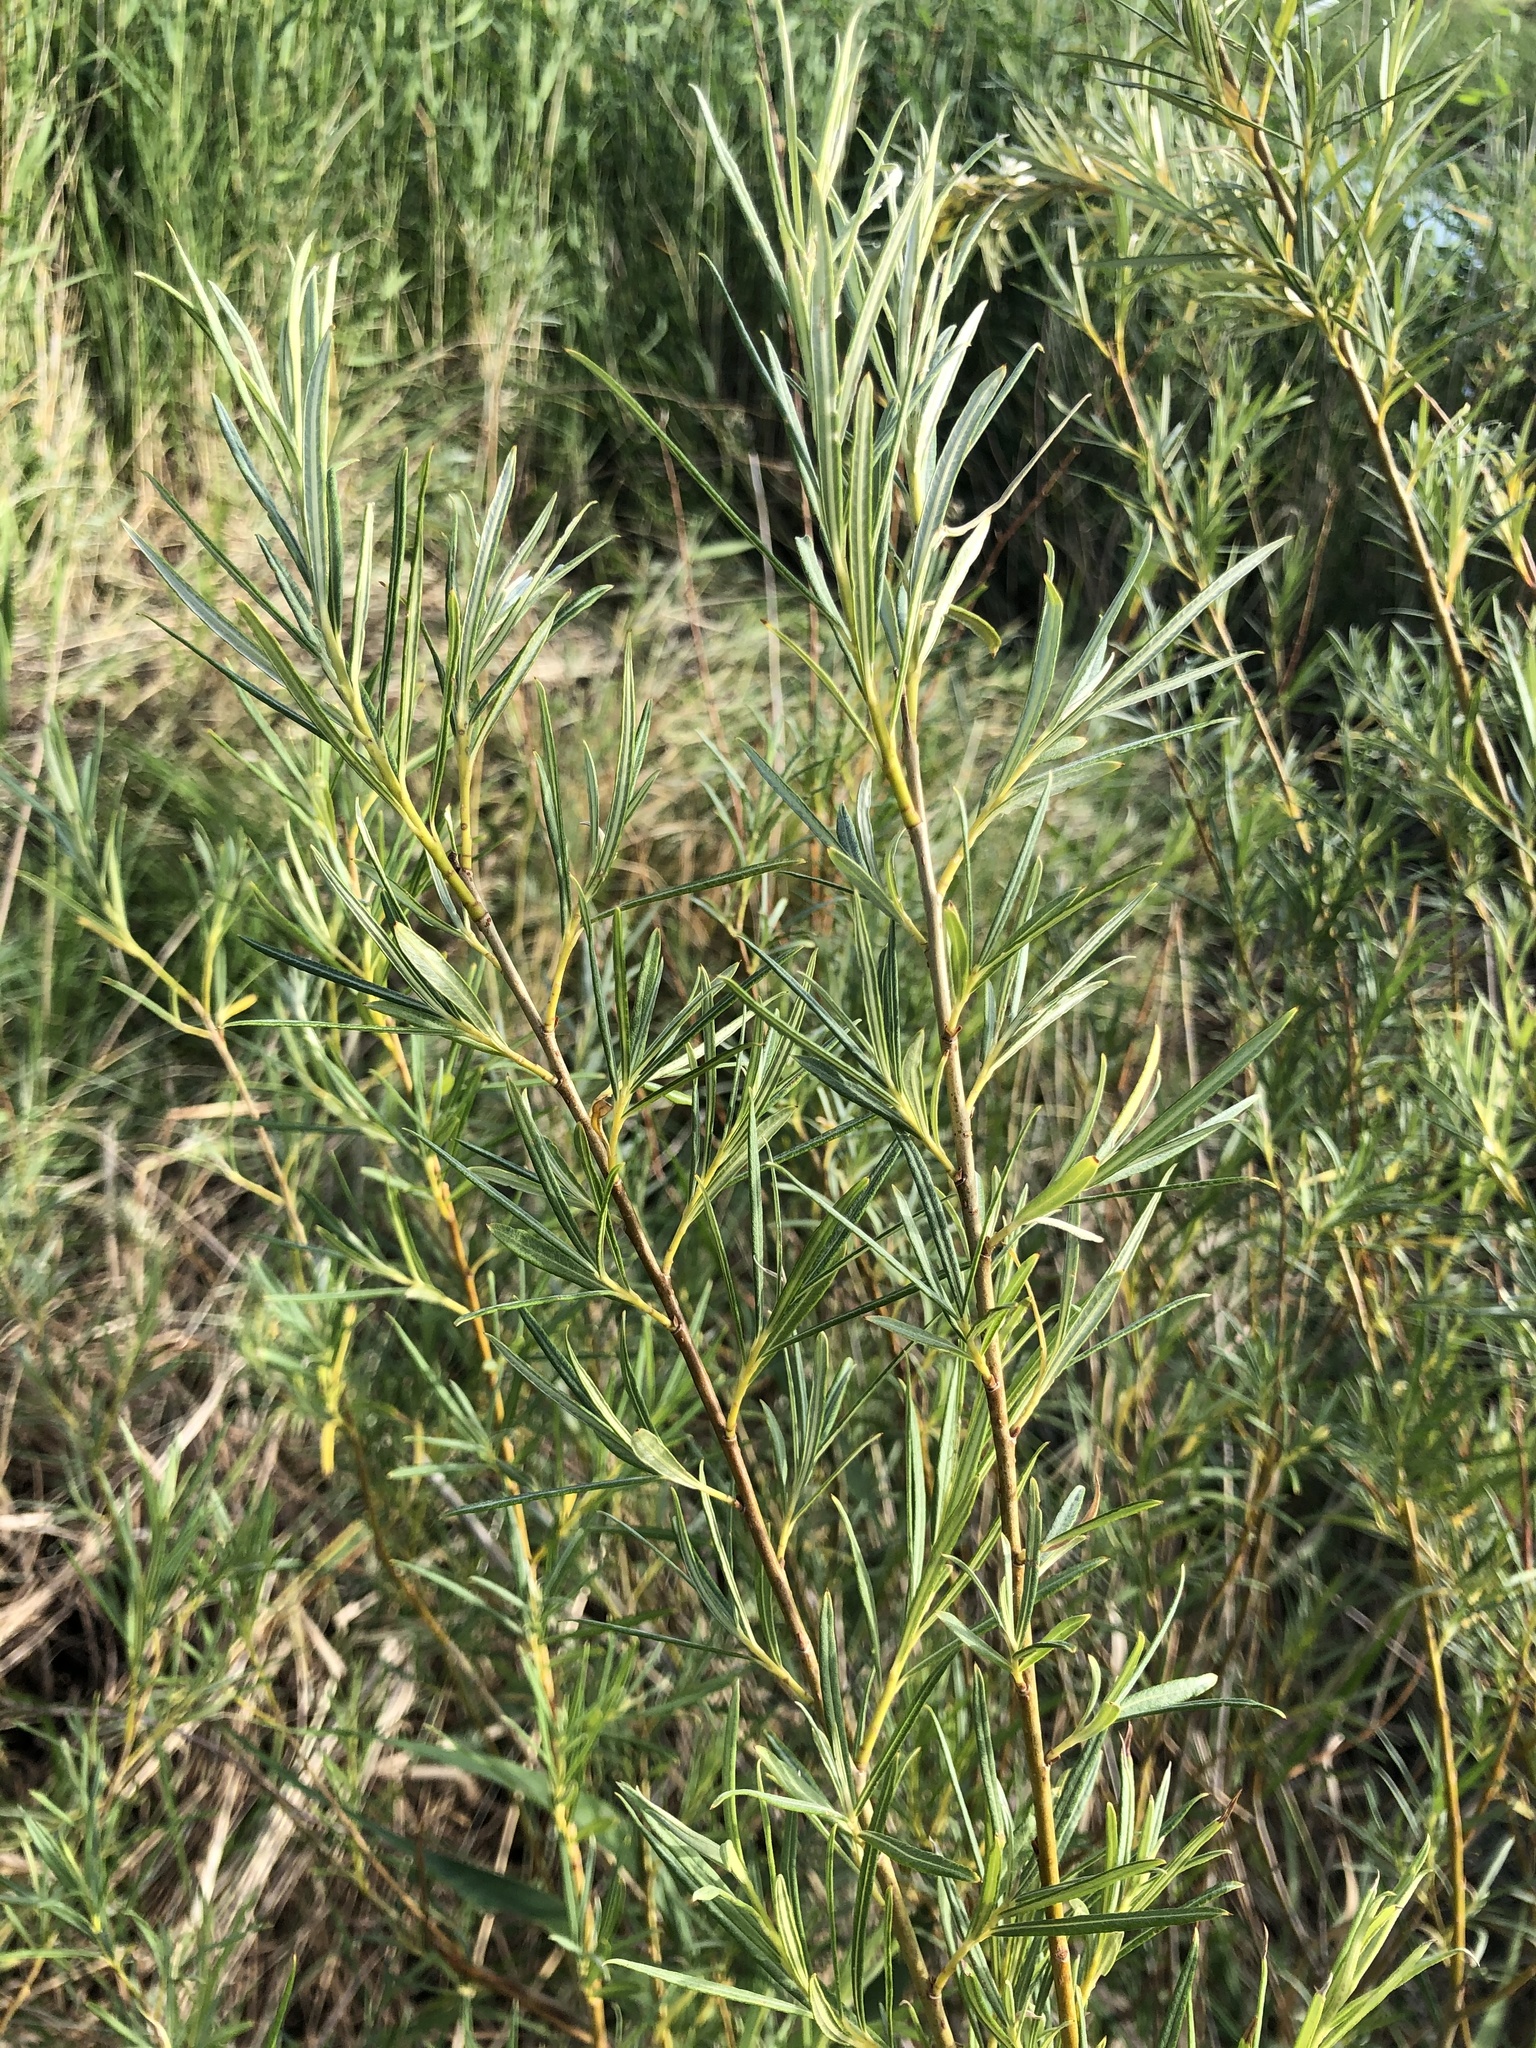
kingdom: Plantae
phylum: Tracheophyta
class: Magnoliopsida
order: Malpighiales
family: Salicaceae
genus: Salix
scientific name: Salix viminalis
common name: Osier
